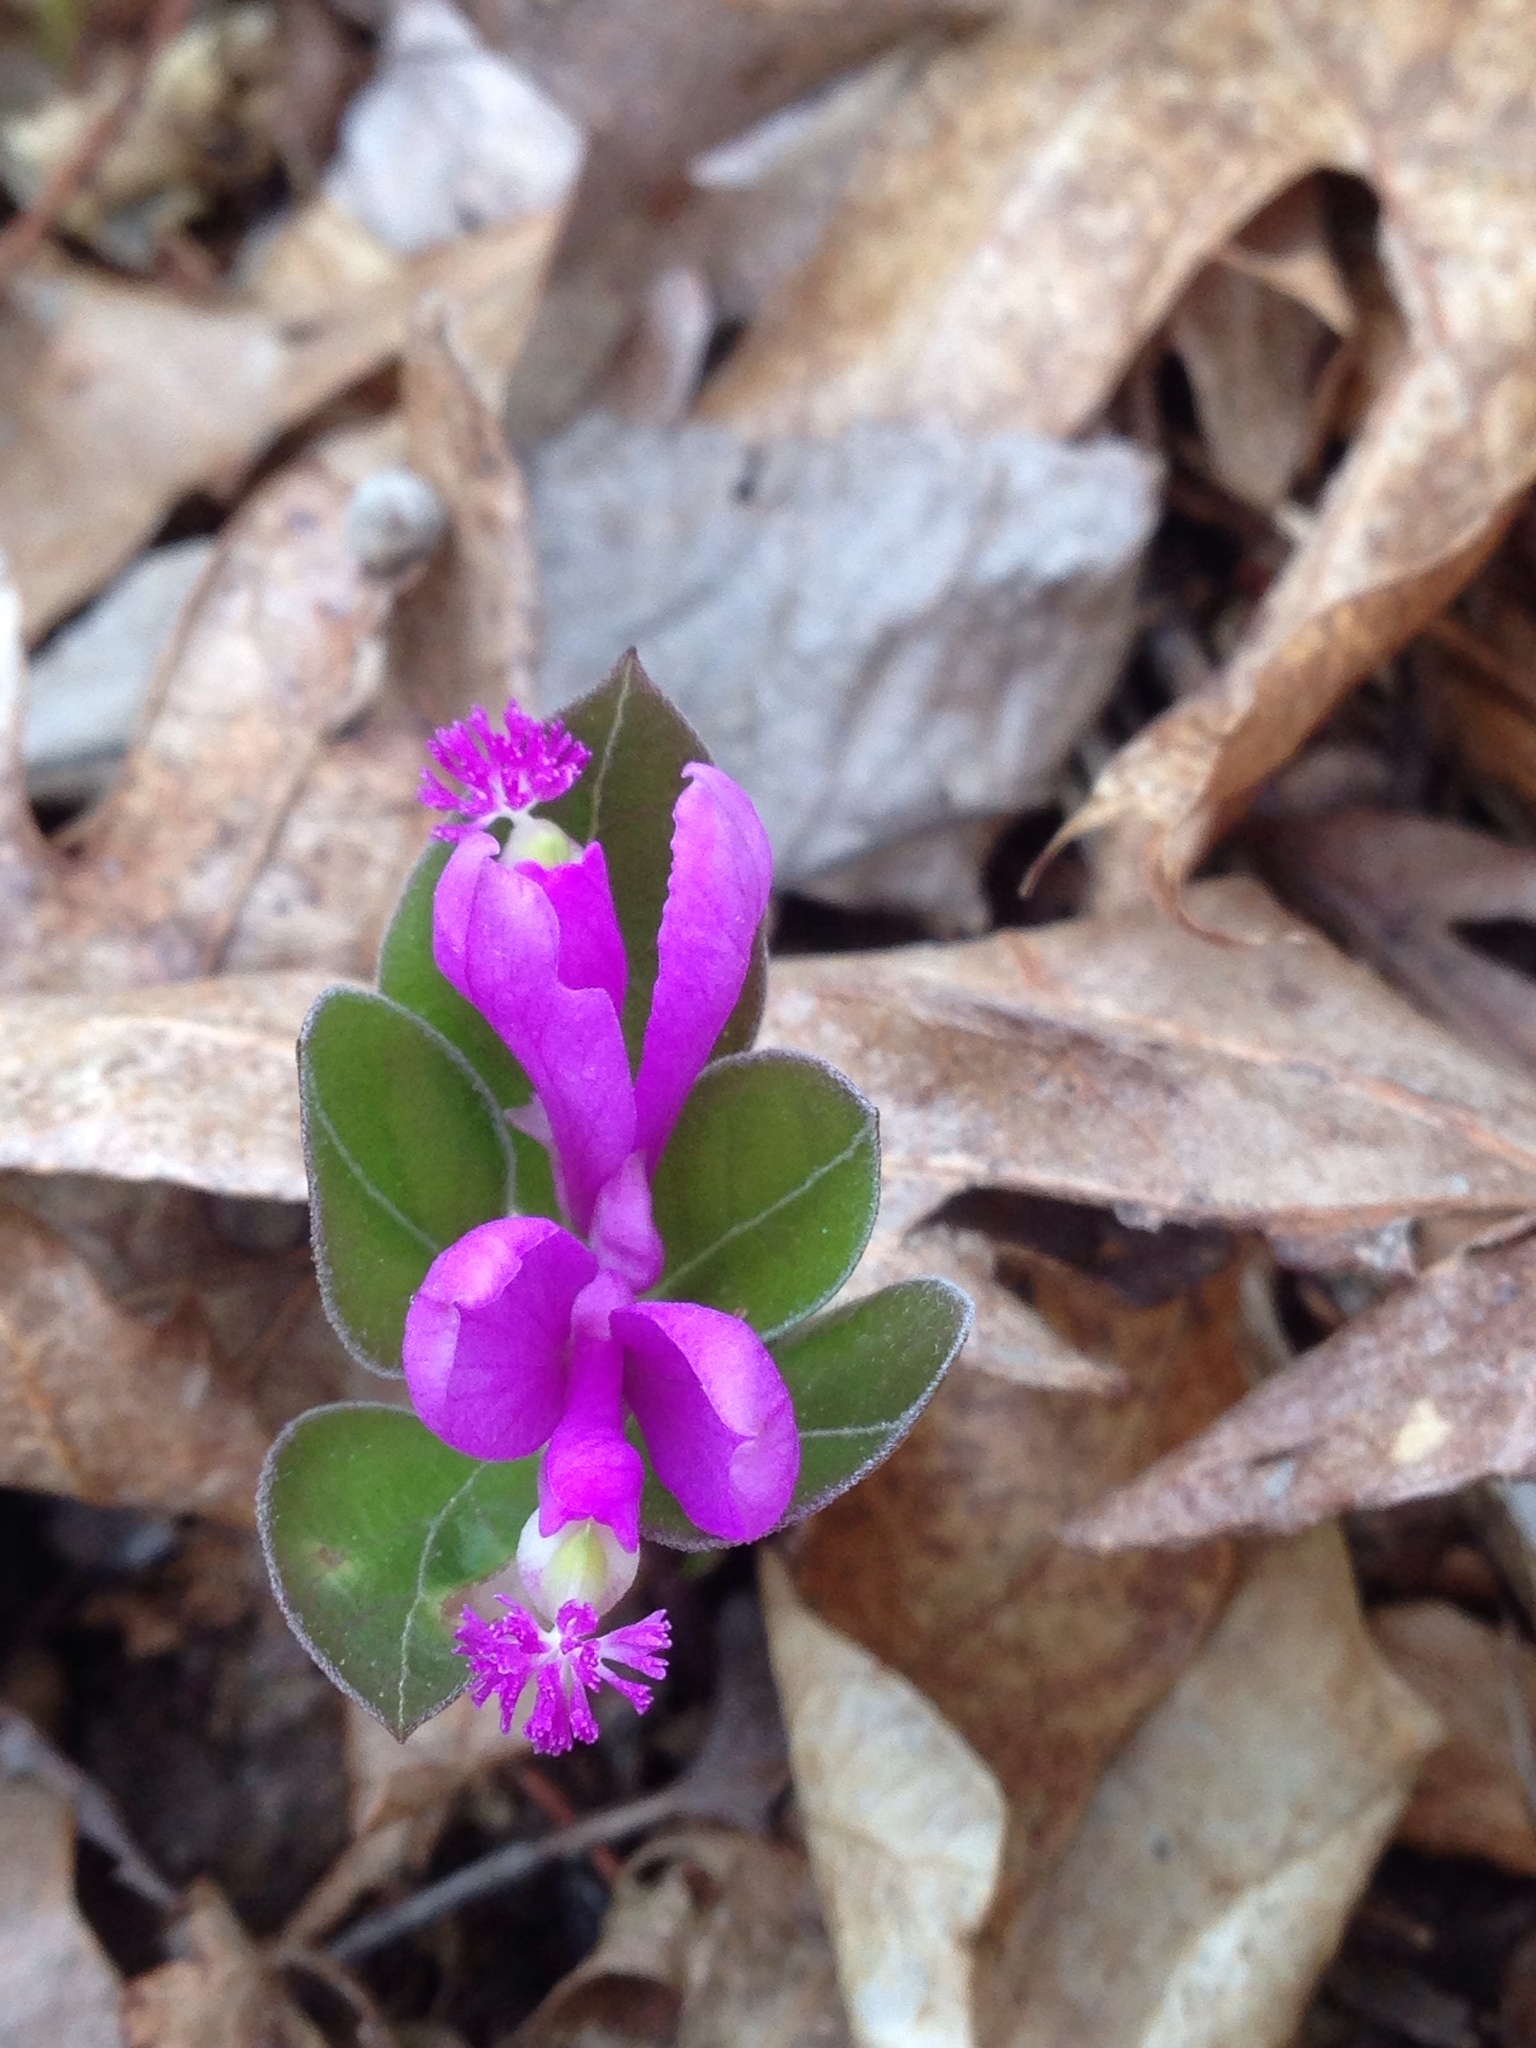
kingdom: Plantae
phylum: Tracheophyta
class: Magnoliopsida
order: Fabales
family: Polygalaceae
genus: Polygaloides
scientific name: Polygaloides paucifolia
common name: Bird-on-the-wing
